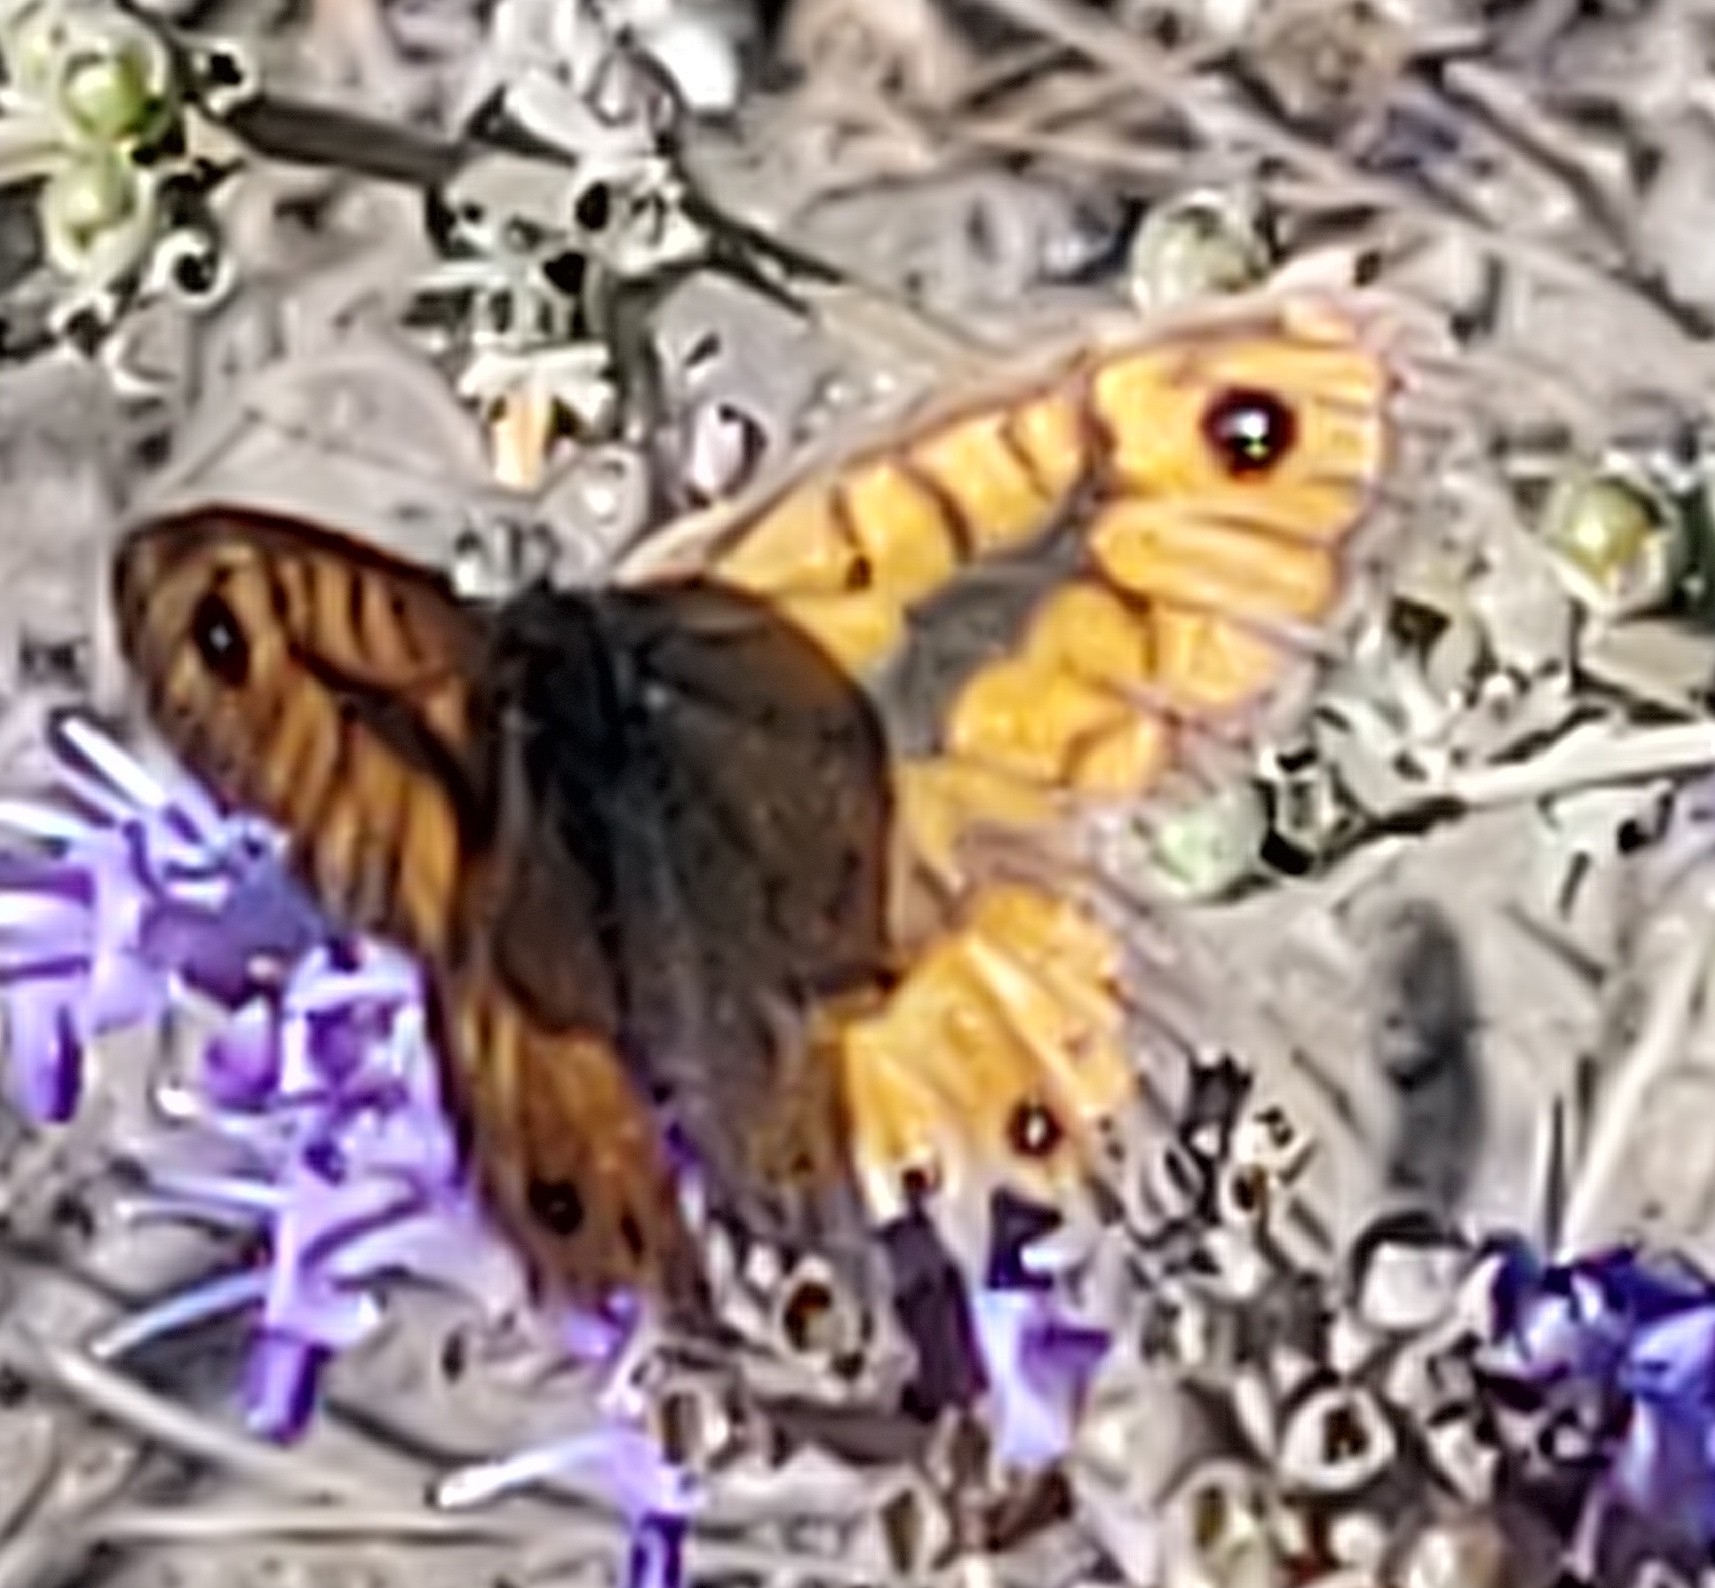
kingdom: Animalia
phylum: Arthropoda
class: Insecta
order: Lepidoptera
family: Nymphalidae
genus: Pararge
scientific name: Pararge Lasiommata paramegaera
